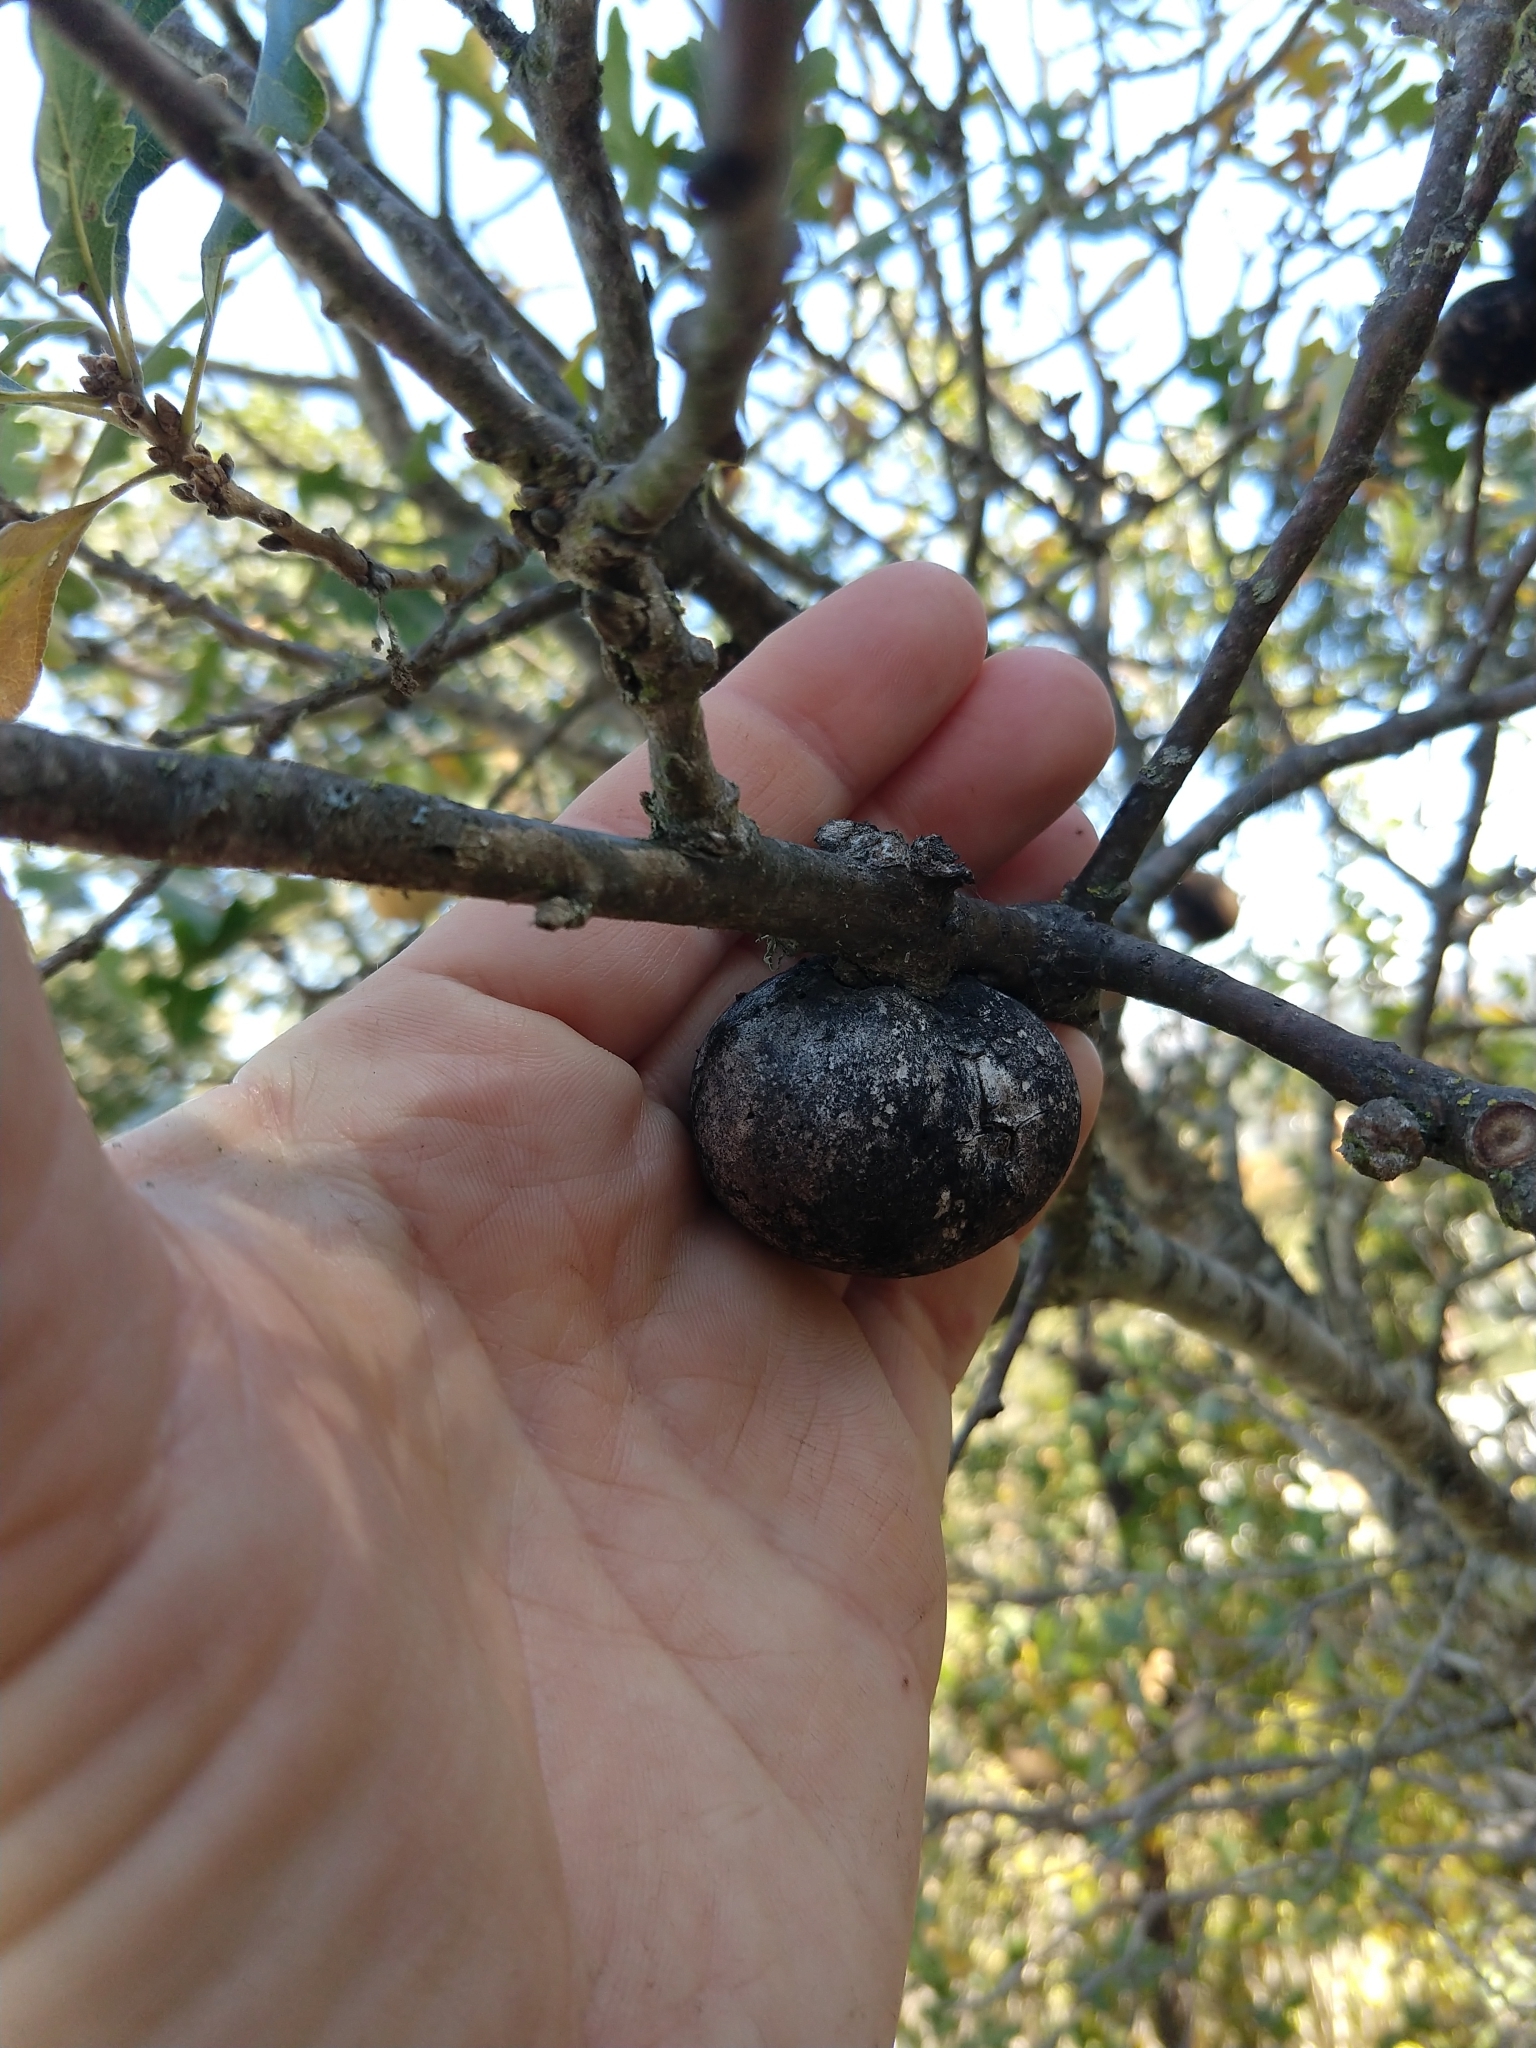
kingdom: Animalia
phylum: Arthropoda
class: Insecta
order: Hymenoptera
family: Cynipidae
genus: Andricus
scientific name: Andricus quercuscalifornicus
